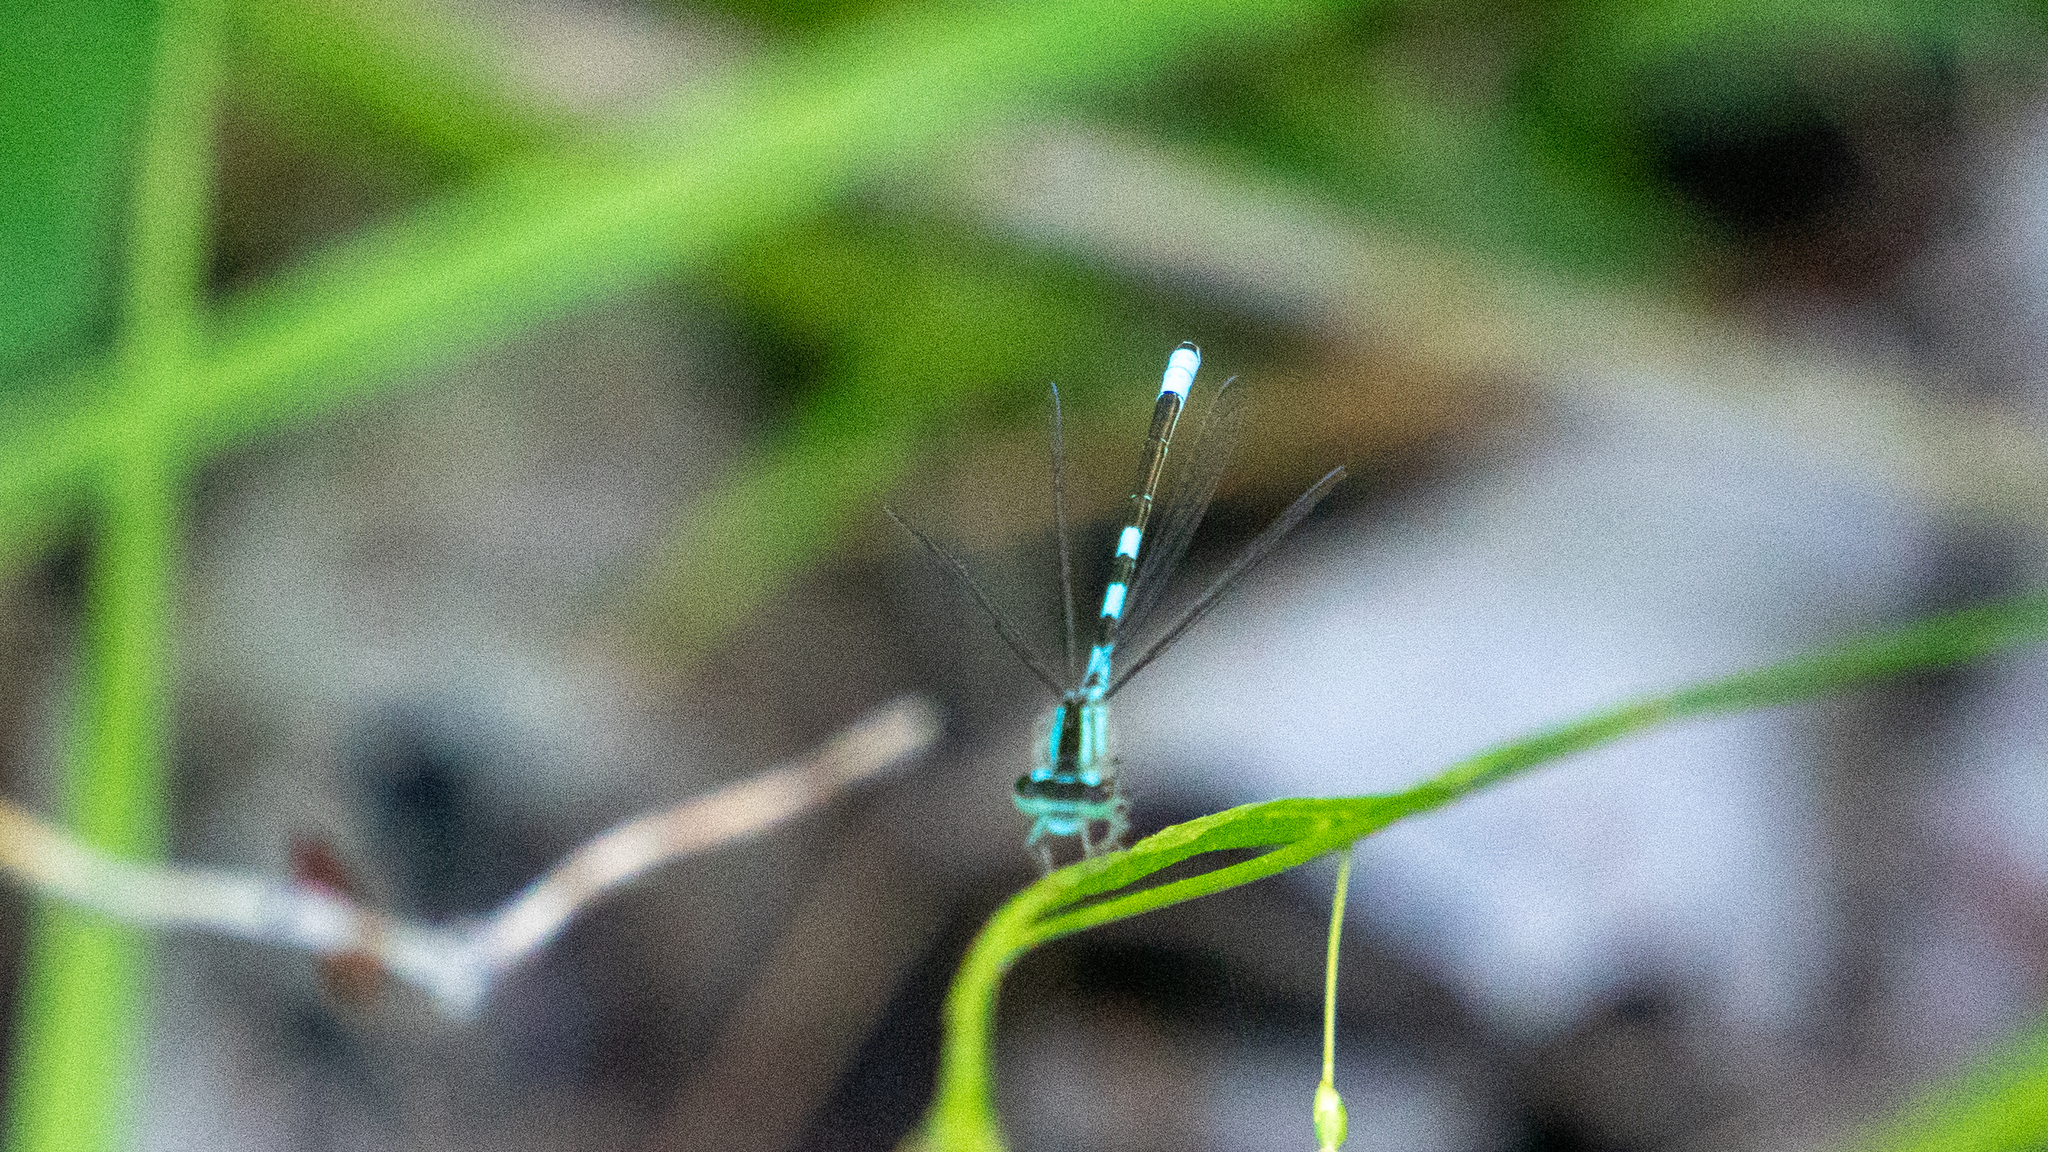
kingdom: Animalia
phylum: Arthropoda
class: Insecta
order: Odonata
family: Coenagrionidae
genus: Coenagrion
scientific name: Coenagrion resolutum
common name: Taiga bluet
